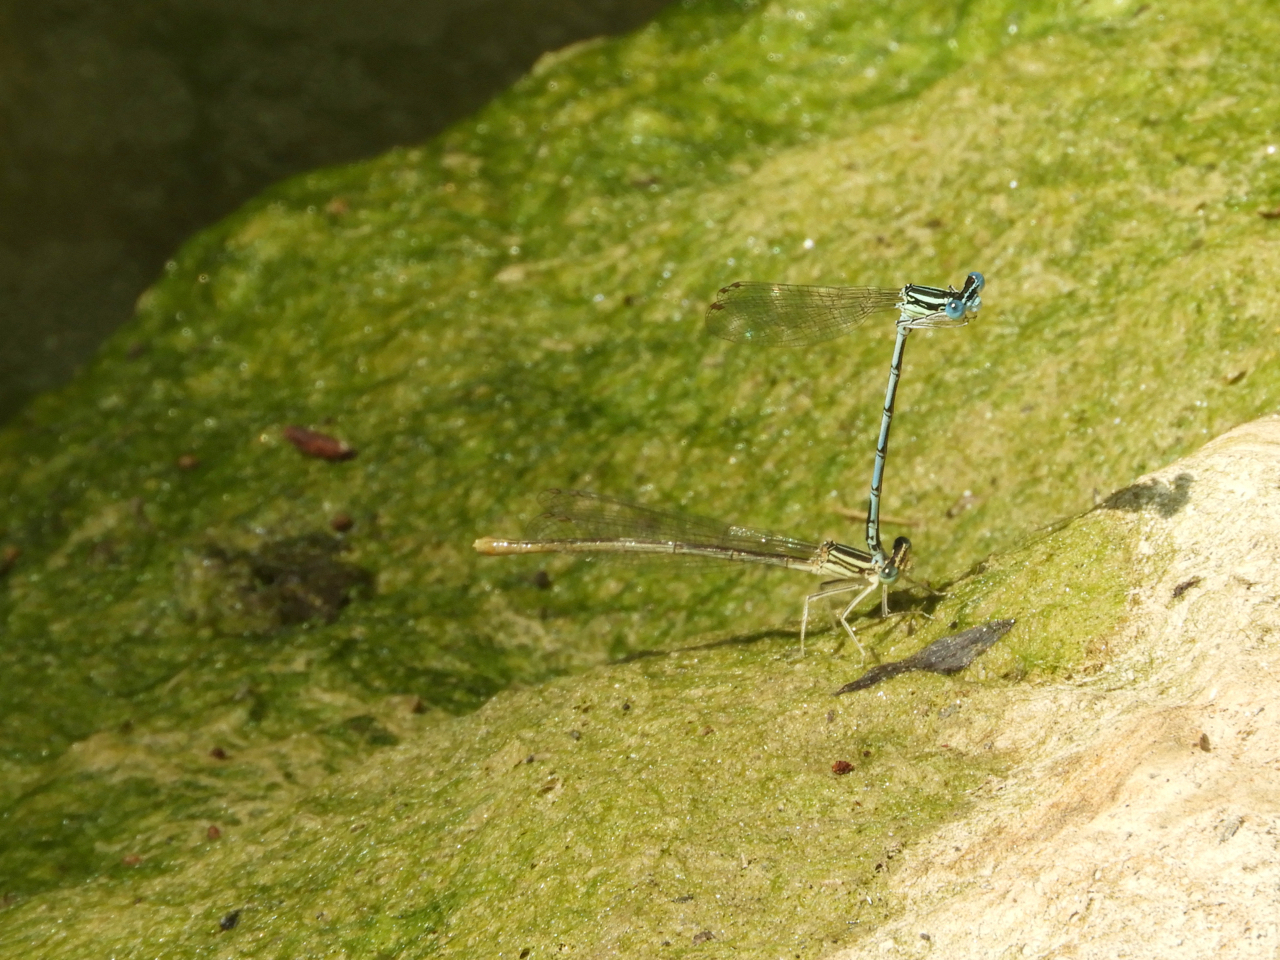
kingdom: Animalia
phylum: Arthropoda
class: Insecta
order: Odonata
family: Platycnemididae
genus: Platycnemis
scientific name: Platycnemis pennipes
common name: White-legged damselfly
